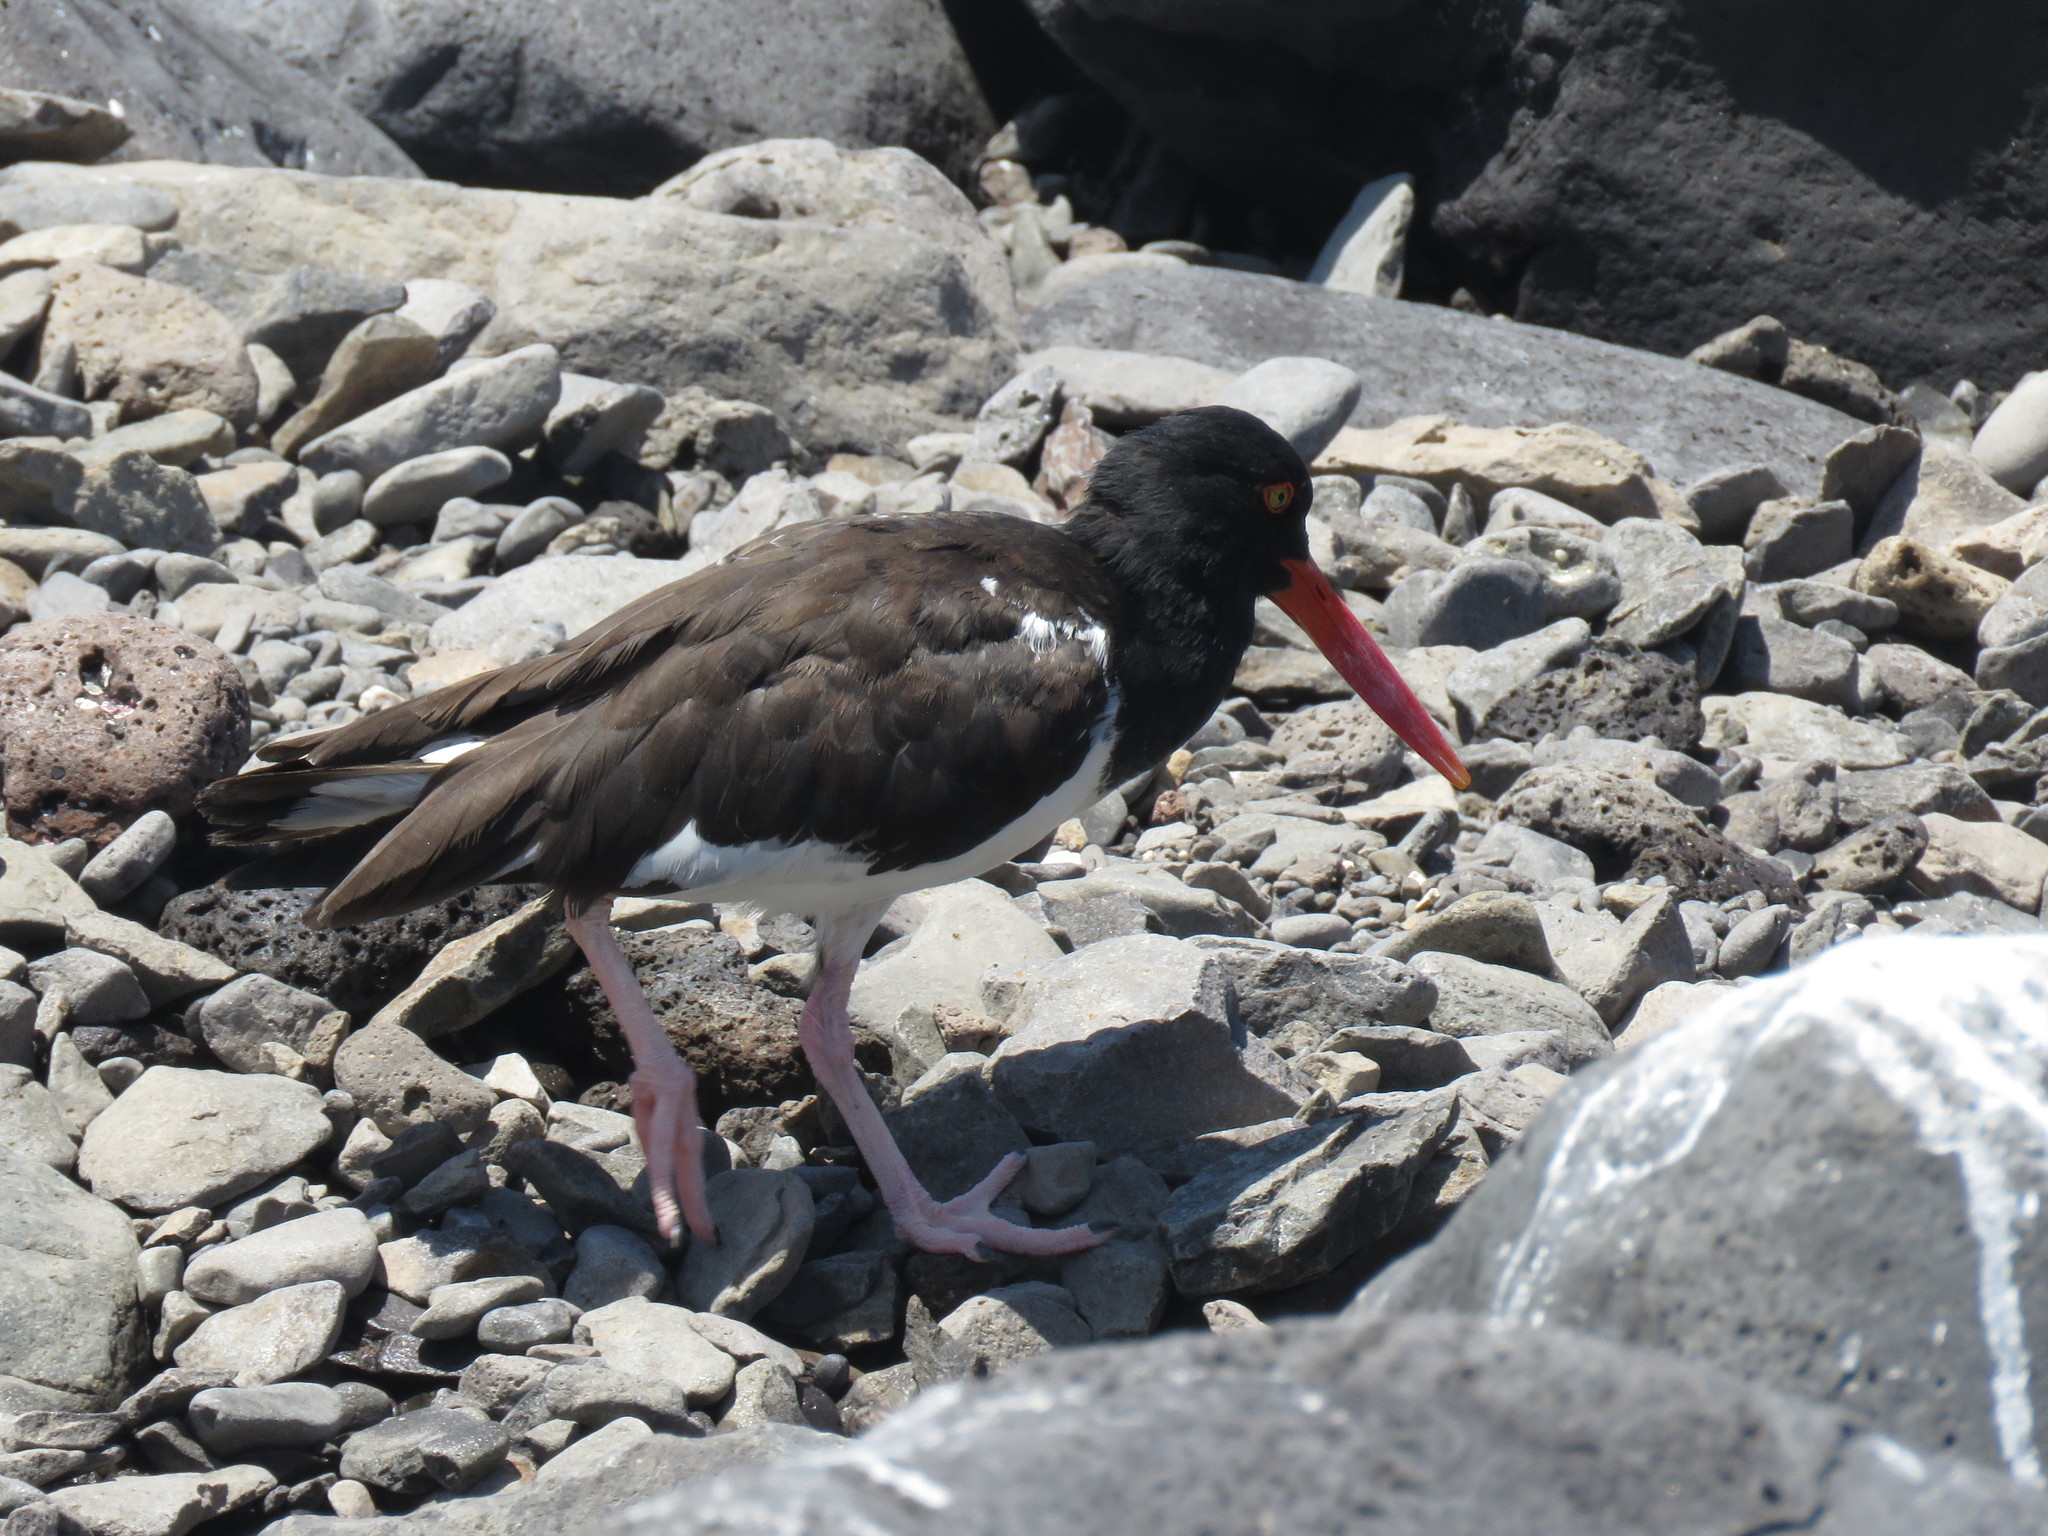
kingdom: Animalia
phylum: Chordata
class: Aves
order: Charadriiformes
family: Haematopodidae
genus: Haematopus
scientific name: Haematopus palliatus
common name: American oystercatcher
